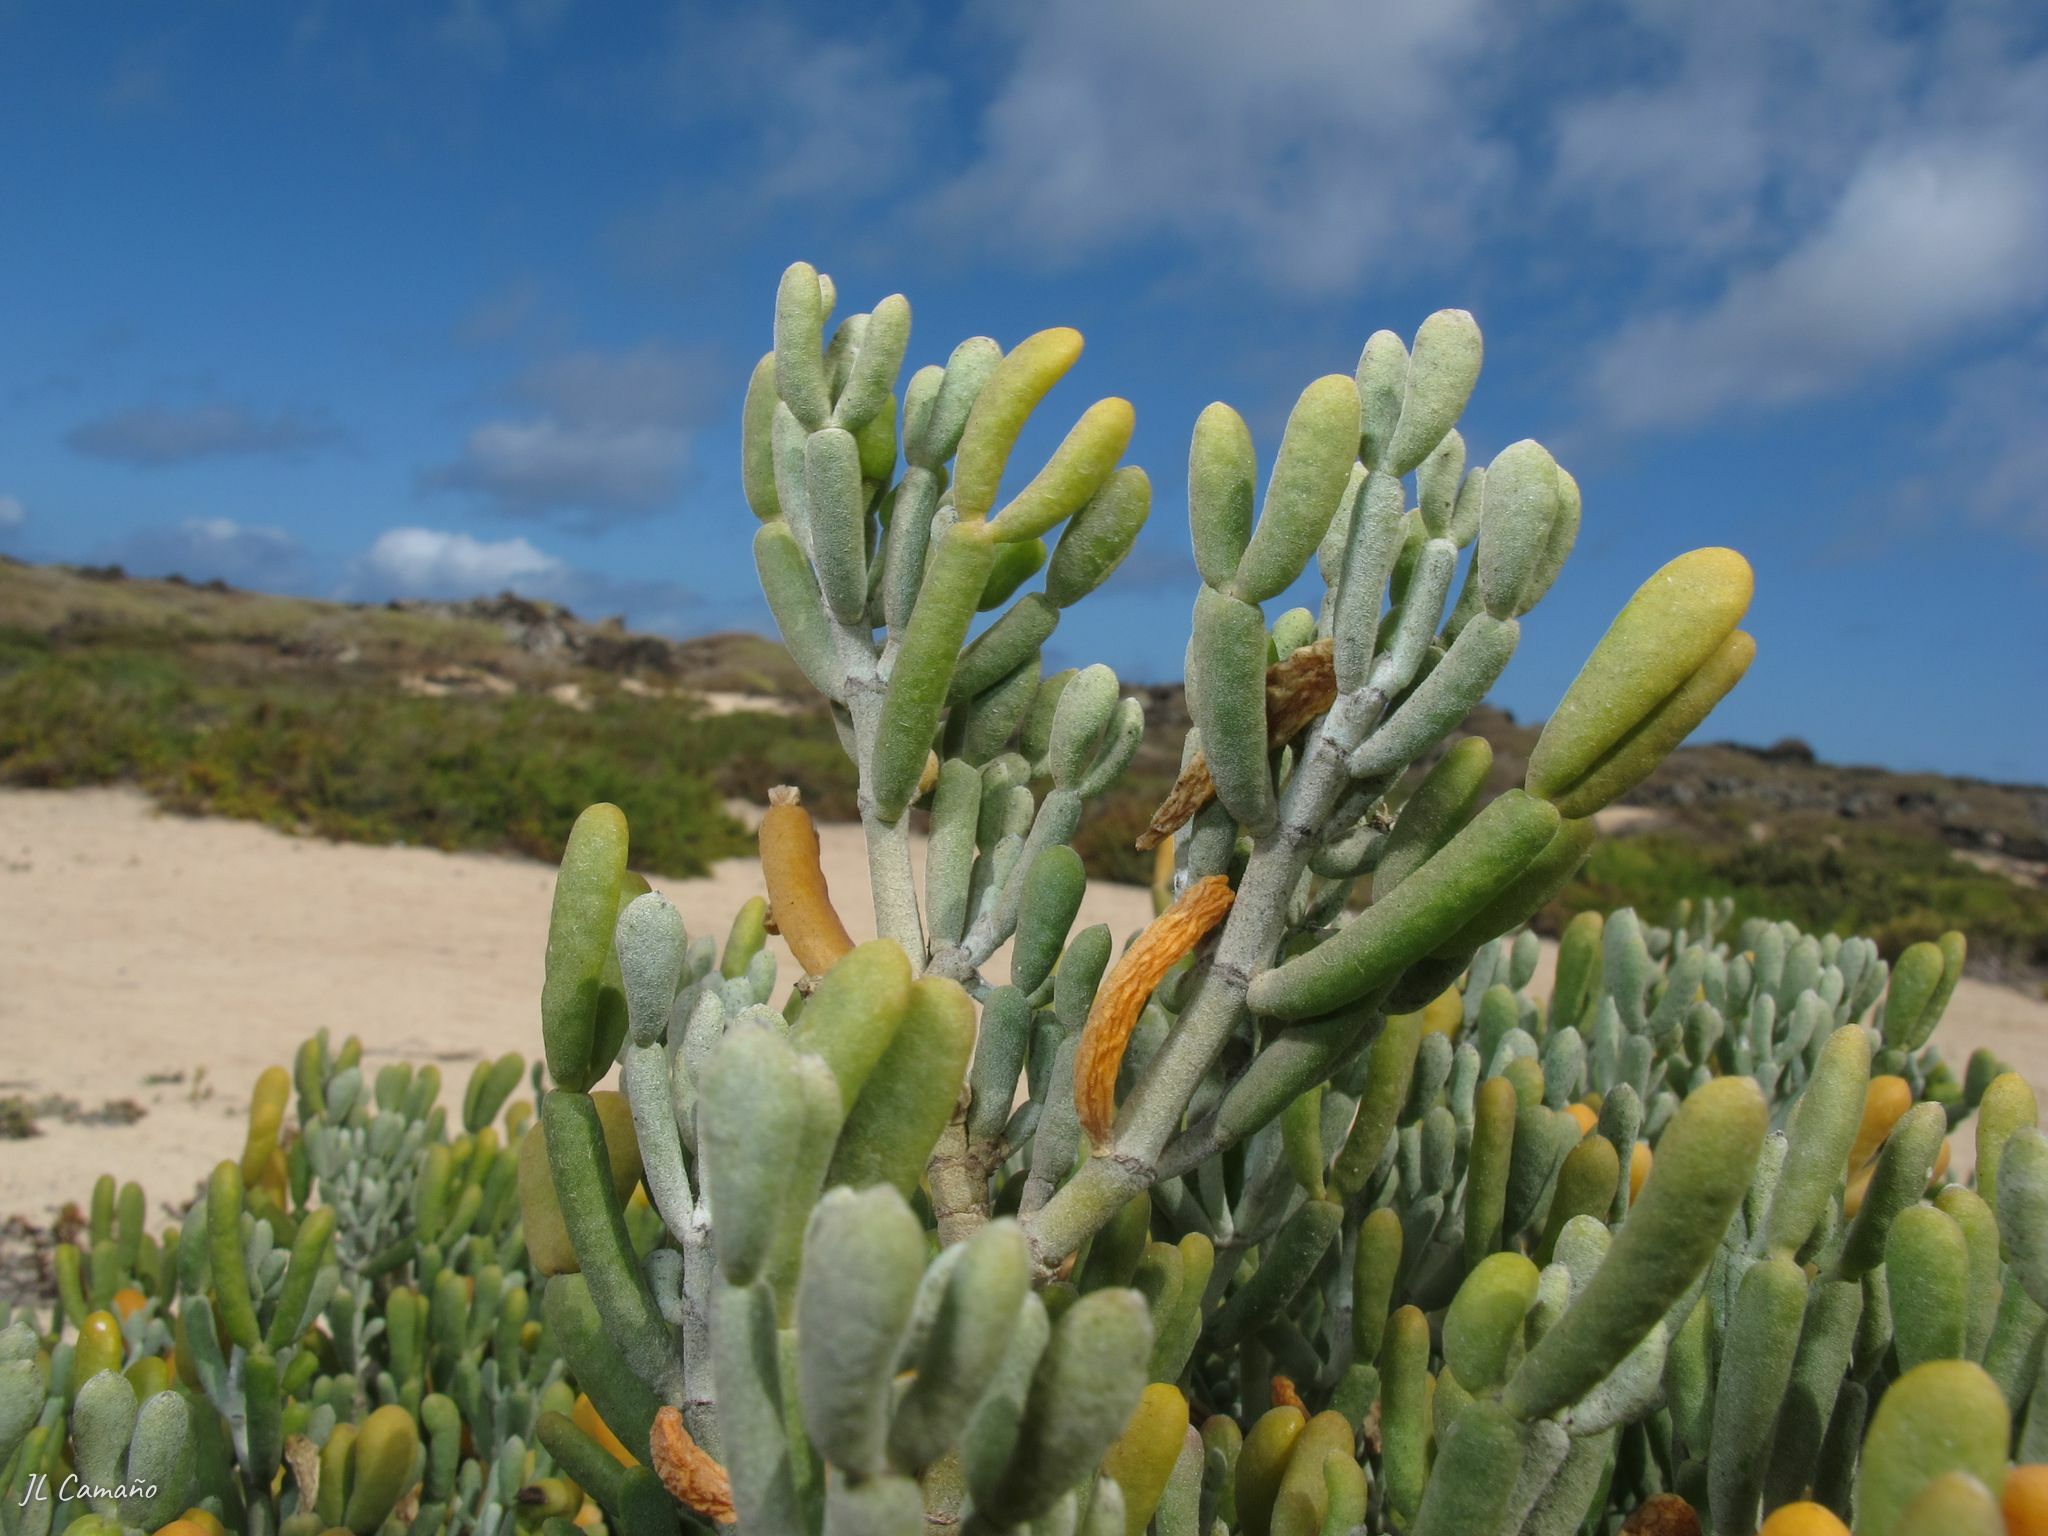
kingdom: Plantae
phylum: Tracheophyta
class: Magnoliopsida
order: Zygophyllales
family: Zygophyllaceae
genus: Tetraena
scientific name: Tetraena fontanesii
